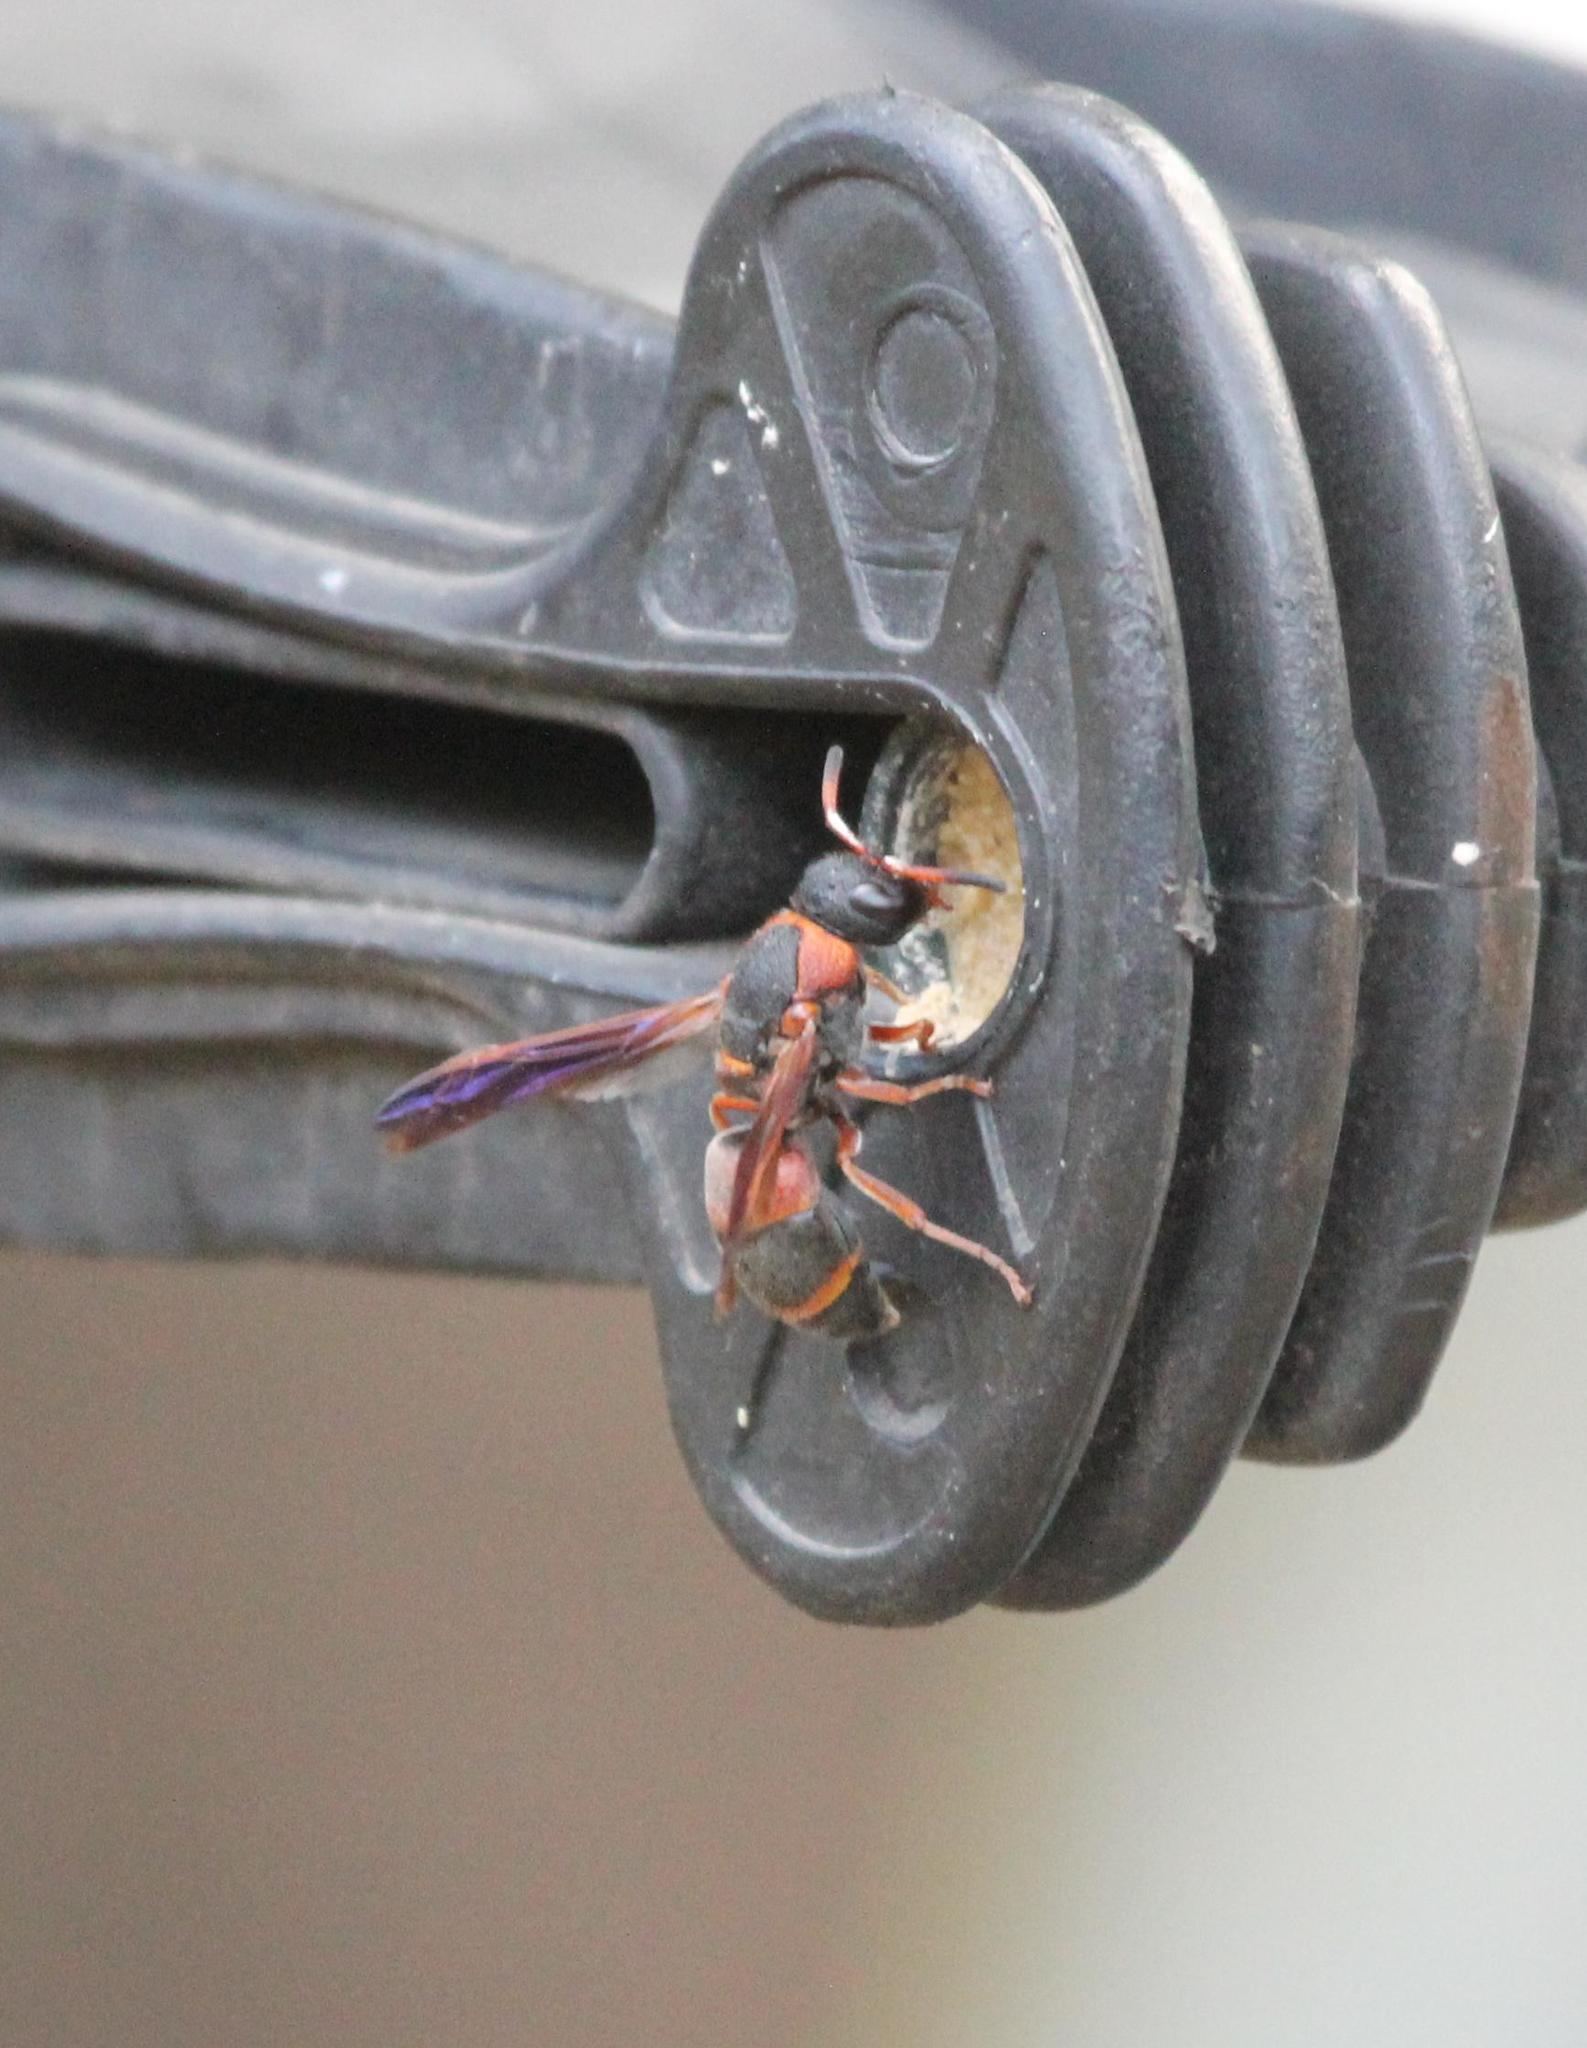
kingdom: Animalia
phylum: Arthropoda
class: Insecta
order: Hymenoptera
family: Eumenidae
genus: Pachodynerus
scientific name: Pachodynerus erynnis
